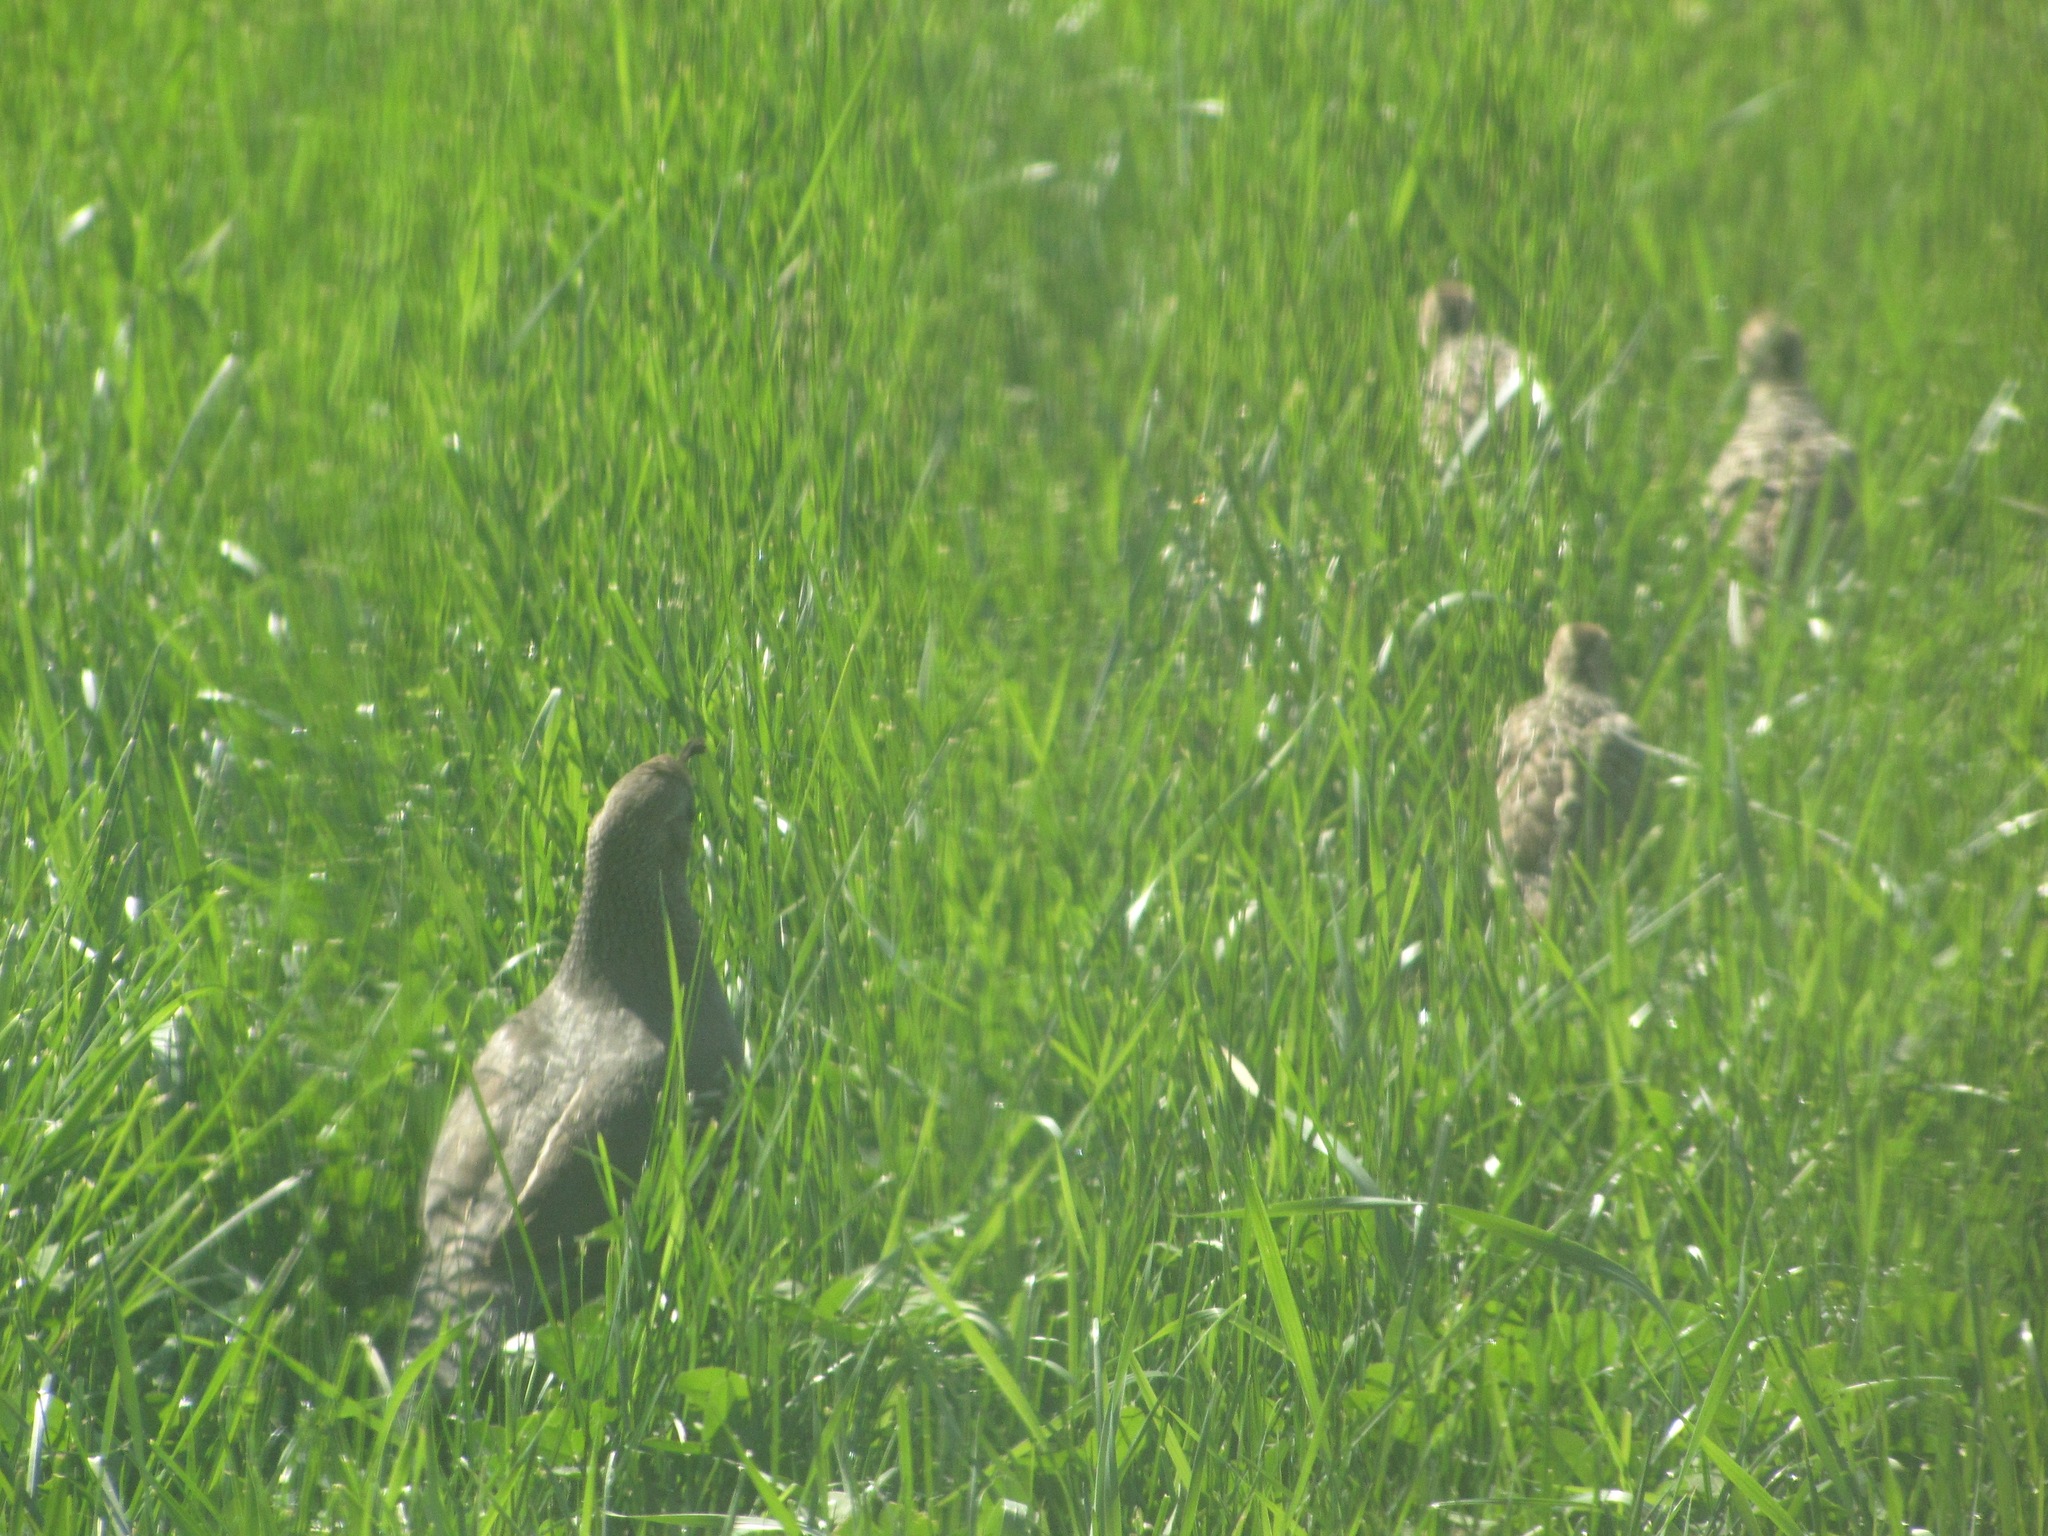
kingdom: Animalia
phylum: Chordata
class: Aves
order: Galliformes
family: Odontophoridae
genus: Callipepla
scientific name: Callipepla californica
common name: California quail
